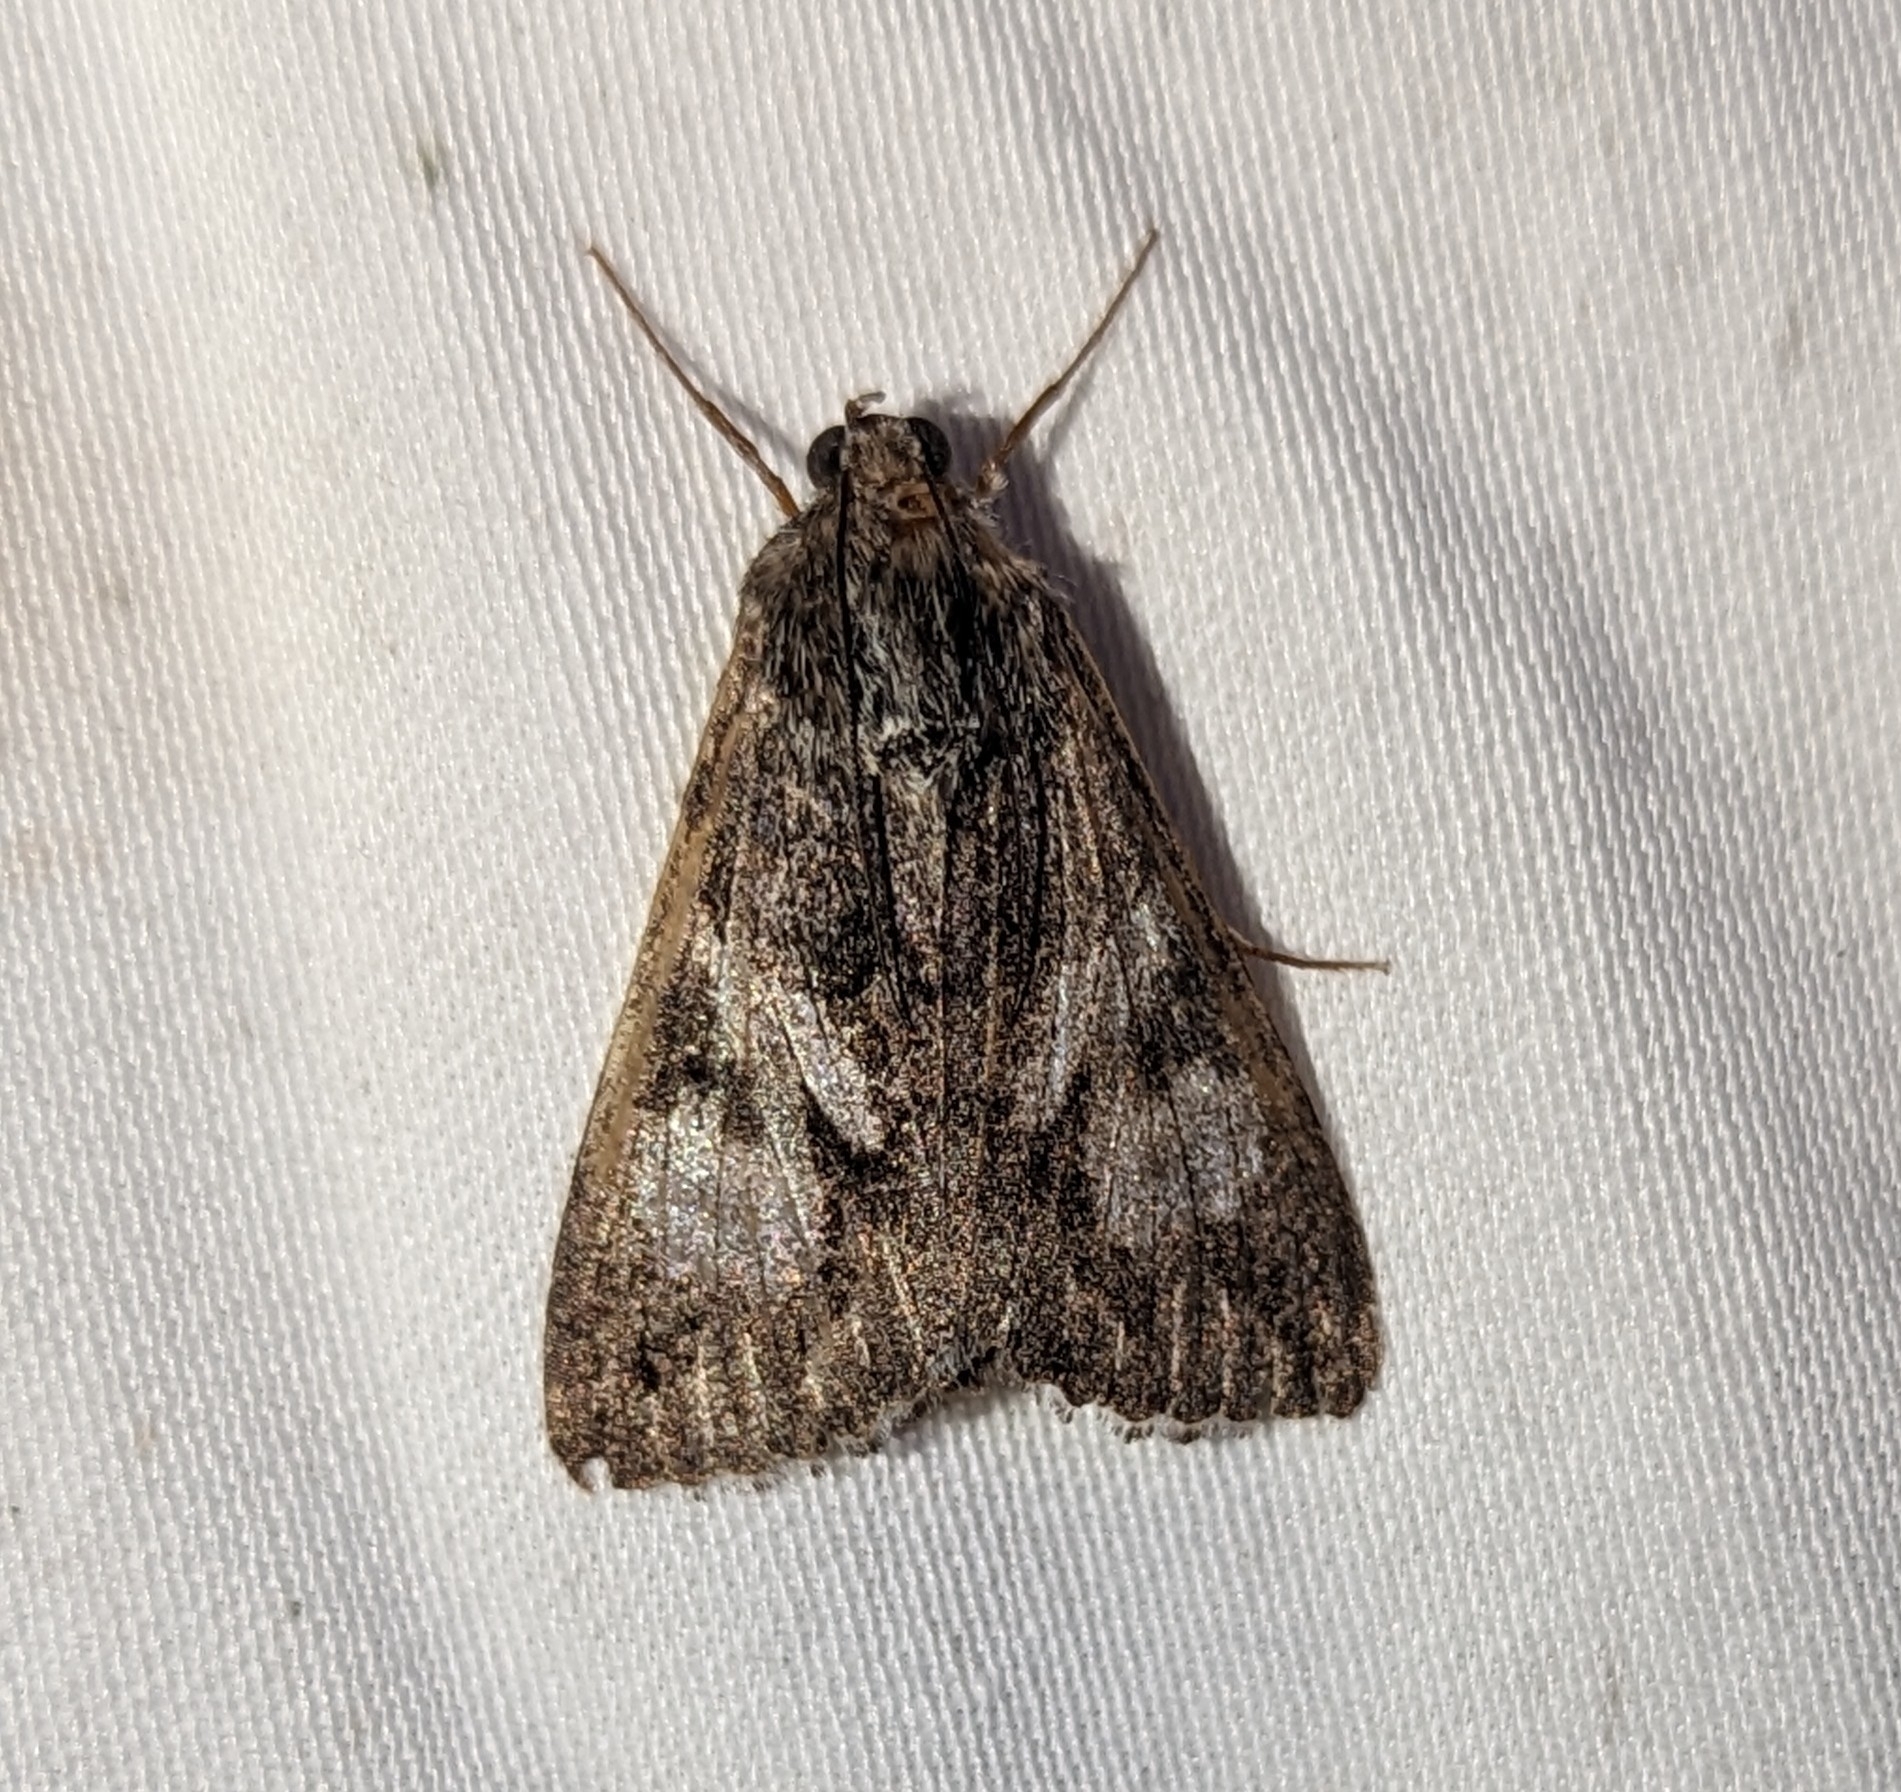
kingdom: Animalia
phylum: Arthropoda
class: Insecta
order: Lepidoptera
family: Erebidae
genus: Melipotis
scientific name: Melipotis jucunda
